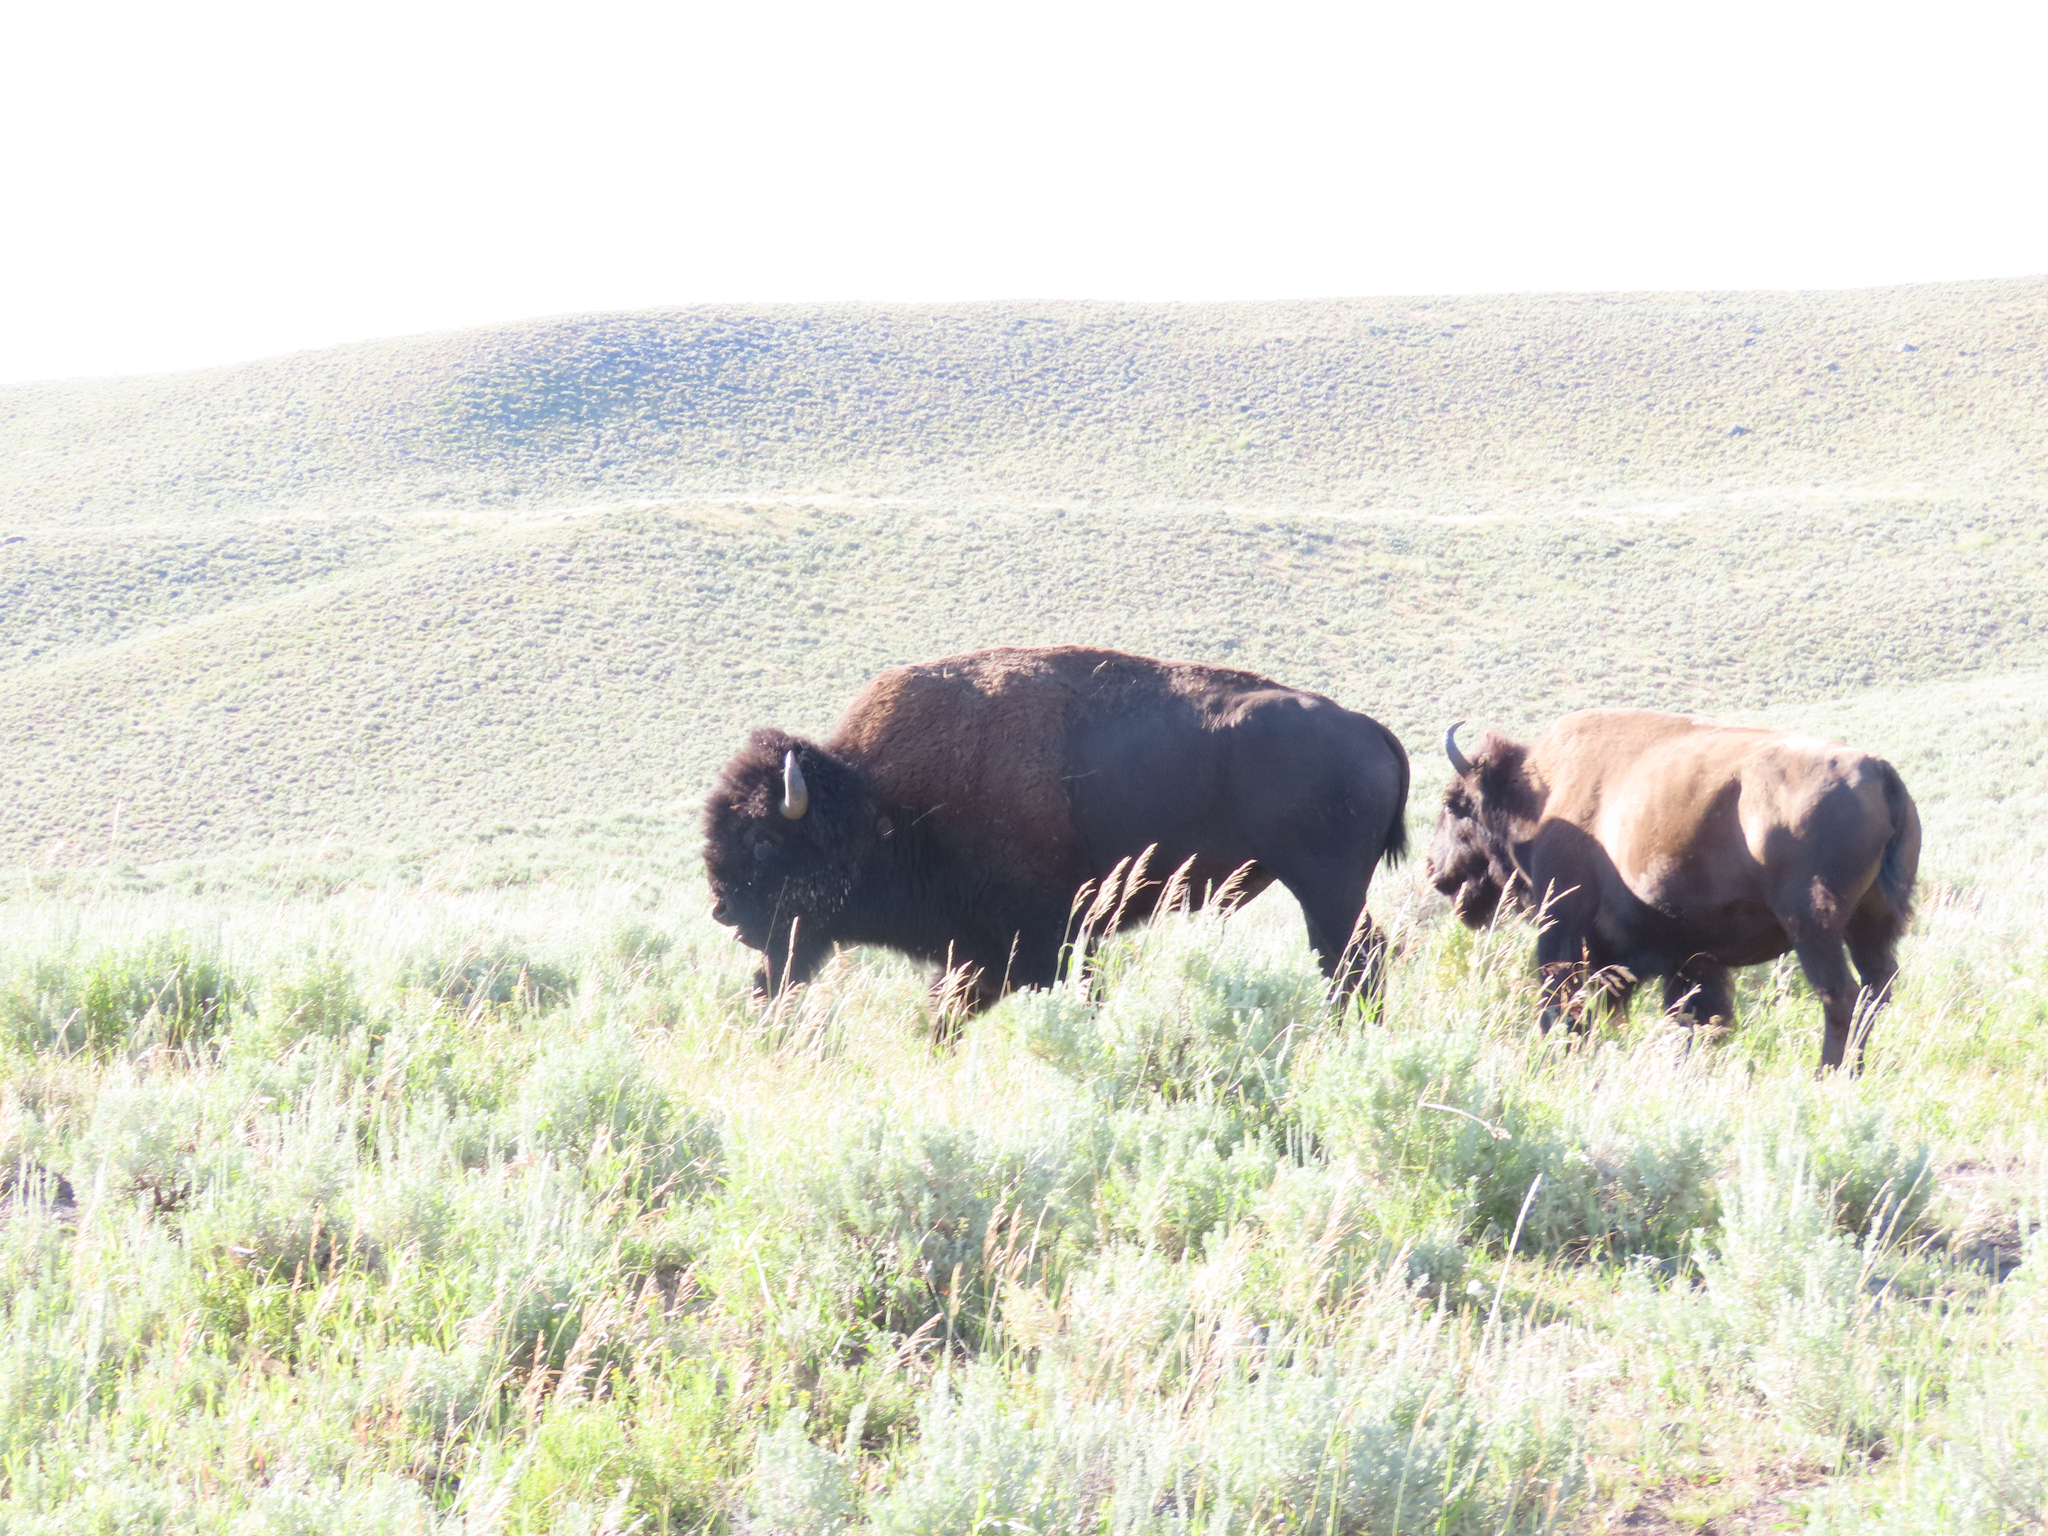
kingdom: Animalia
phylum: Chordata
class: Mammalia
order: Artiodactyla
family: Bovidae
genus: Bison
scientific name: Bison bison
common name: American bison
